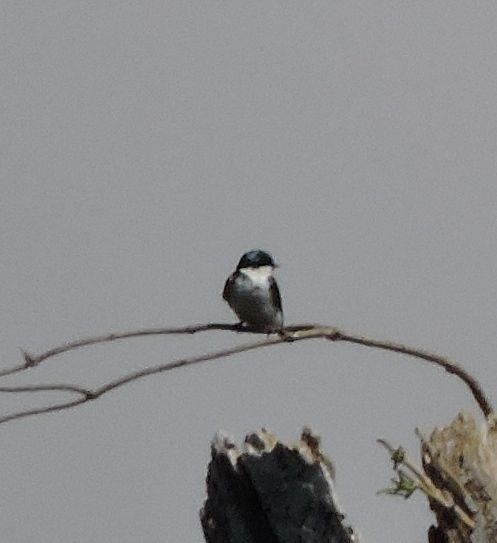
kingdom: Animalia
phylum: Chordata
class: Aves
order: Passeriformes
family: Hirundinidae
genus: Tachycineta
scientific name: Tachycineta bicolor
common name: Tree swallow
